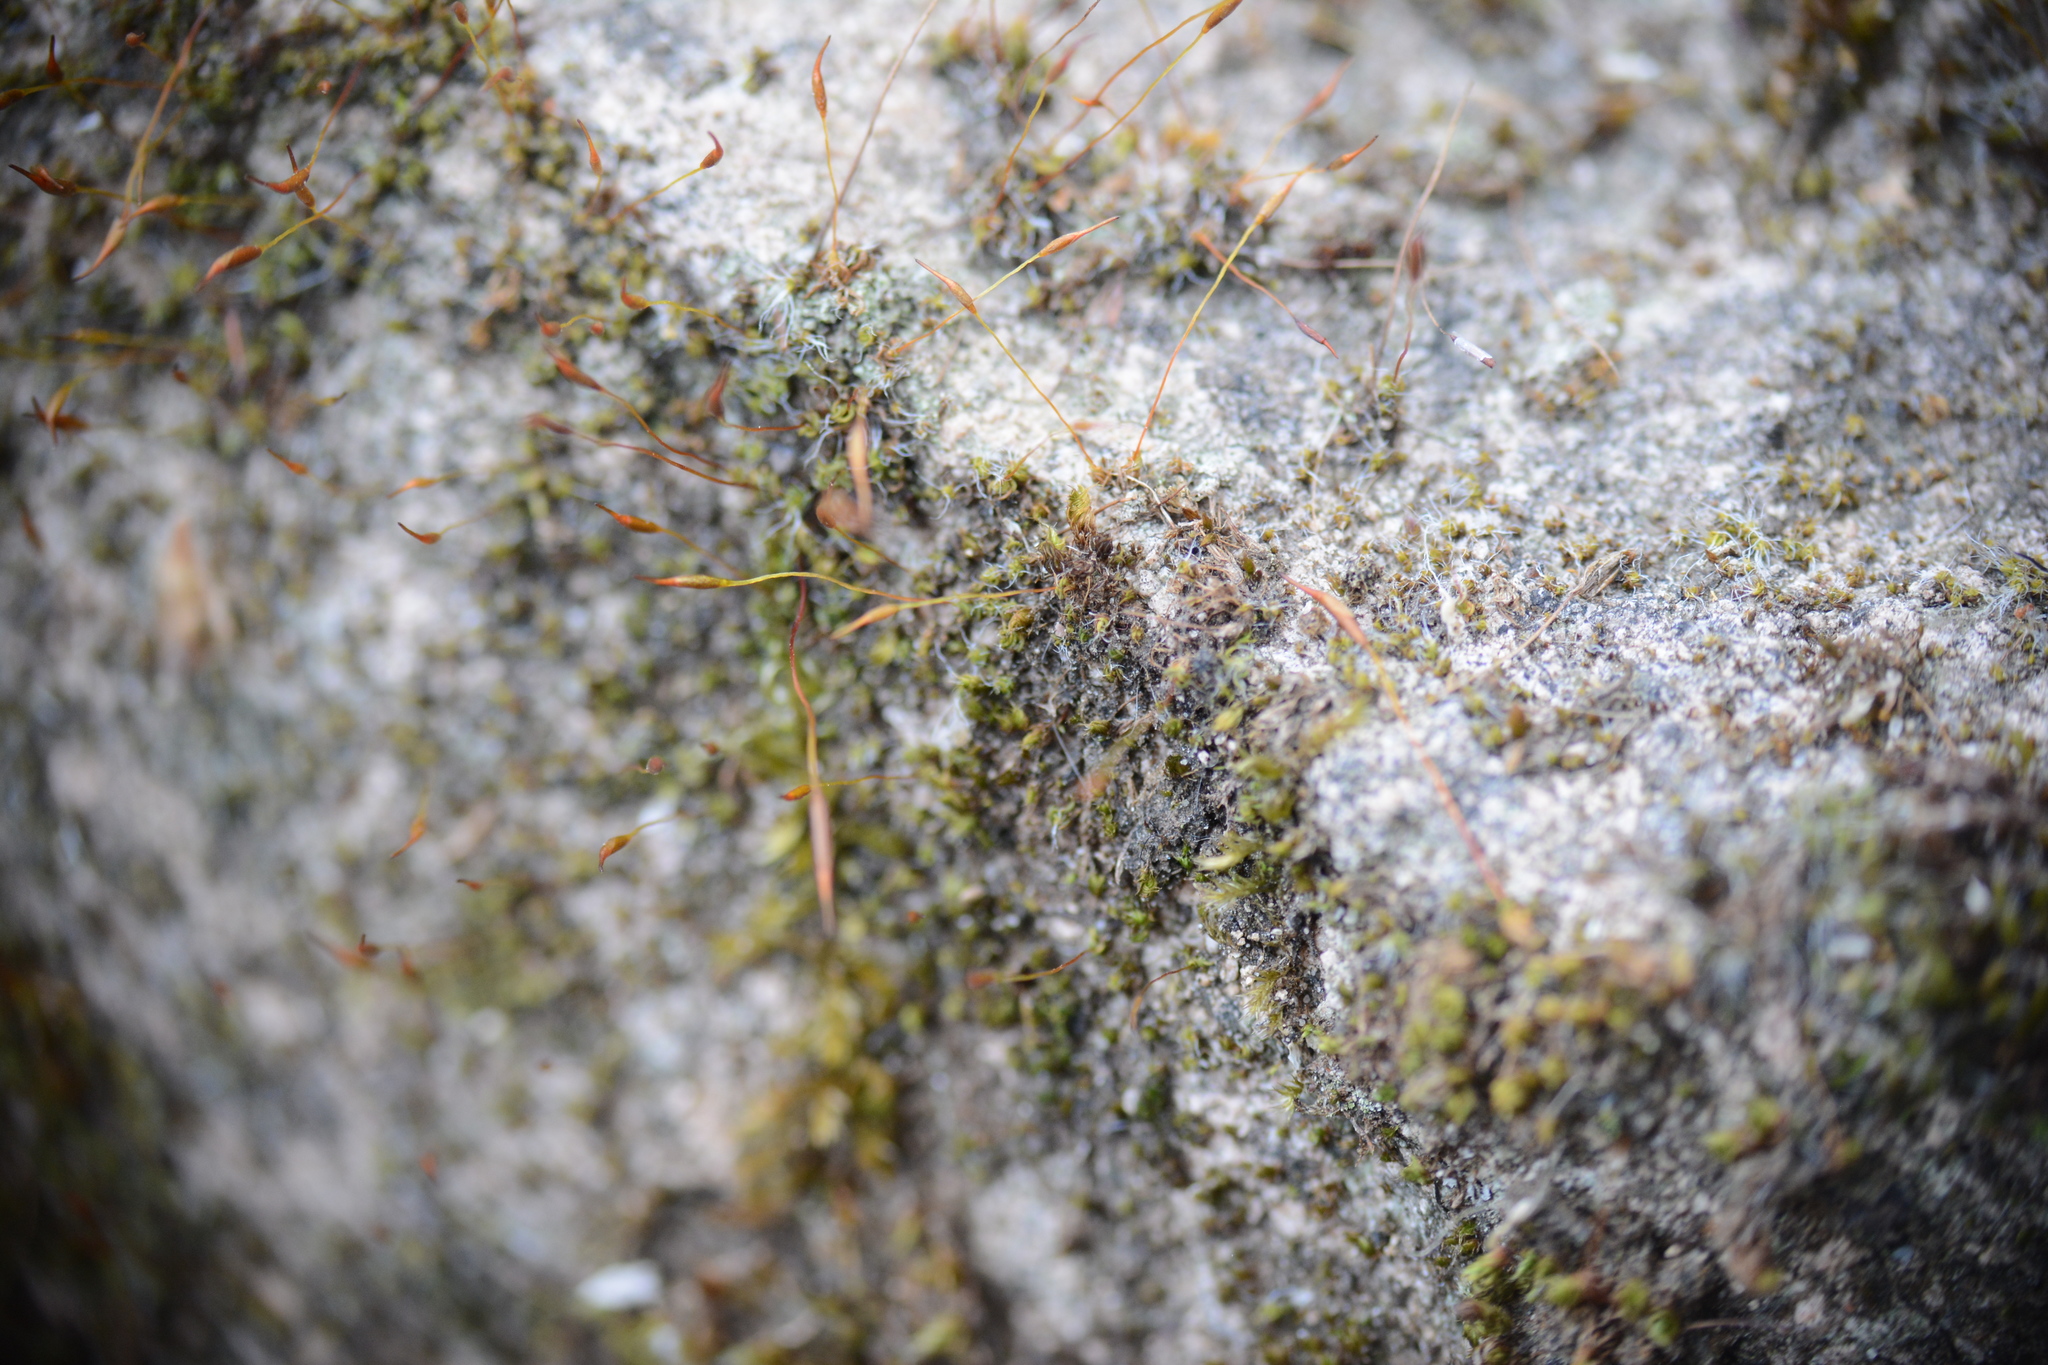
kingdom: Plantae
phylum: Bryophyta
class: Bryopsida
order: Pottiales
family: Pottiaceae
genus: Tortula
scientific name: Tortula muralis
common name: Wall screw-moss
